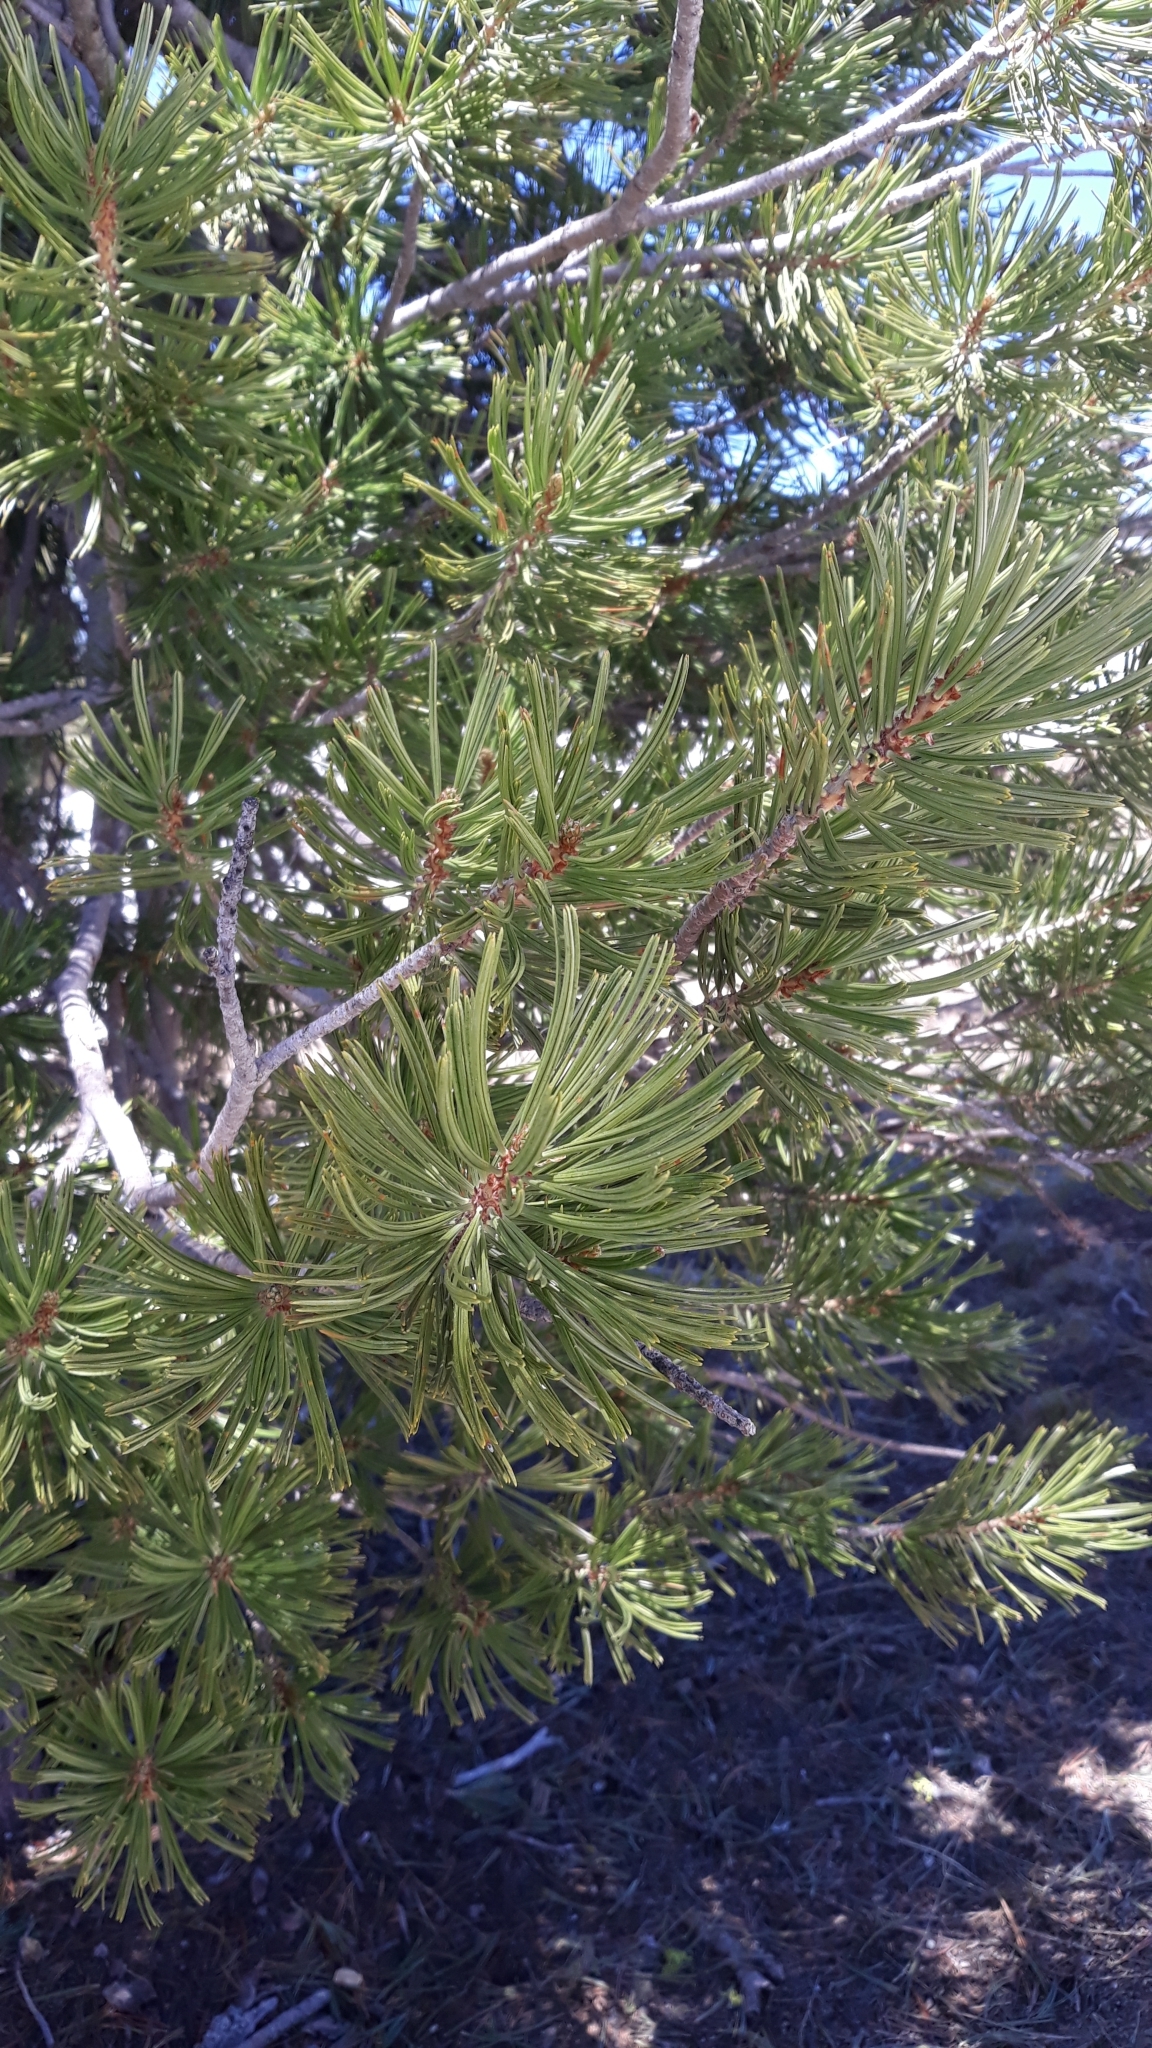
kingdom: Plantae
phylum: Tracheophyta
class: Pinopsida
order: Pinales
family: Pinaceae
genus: Pinus
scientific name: Pinus albicaulis
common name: Whitebark pine
